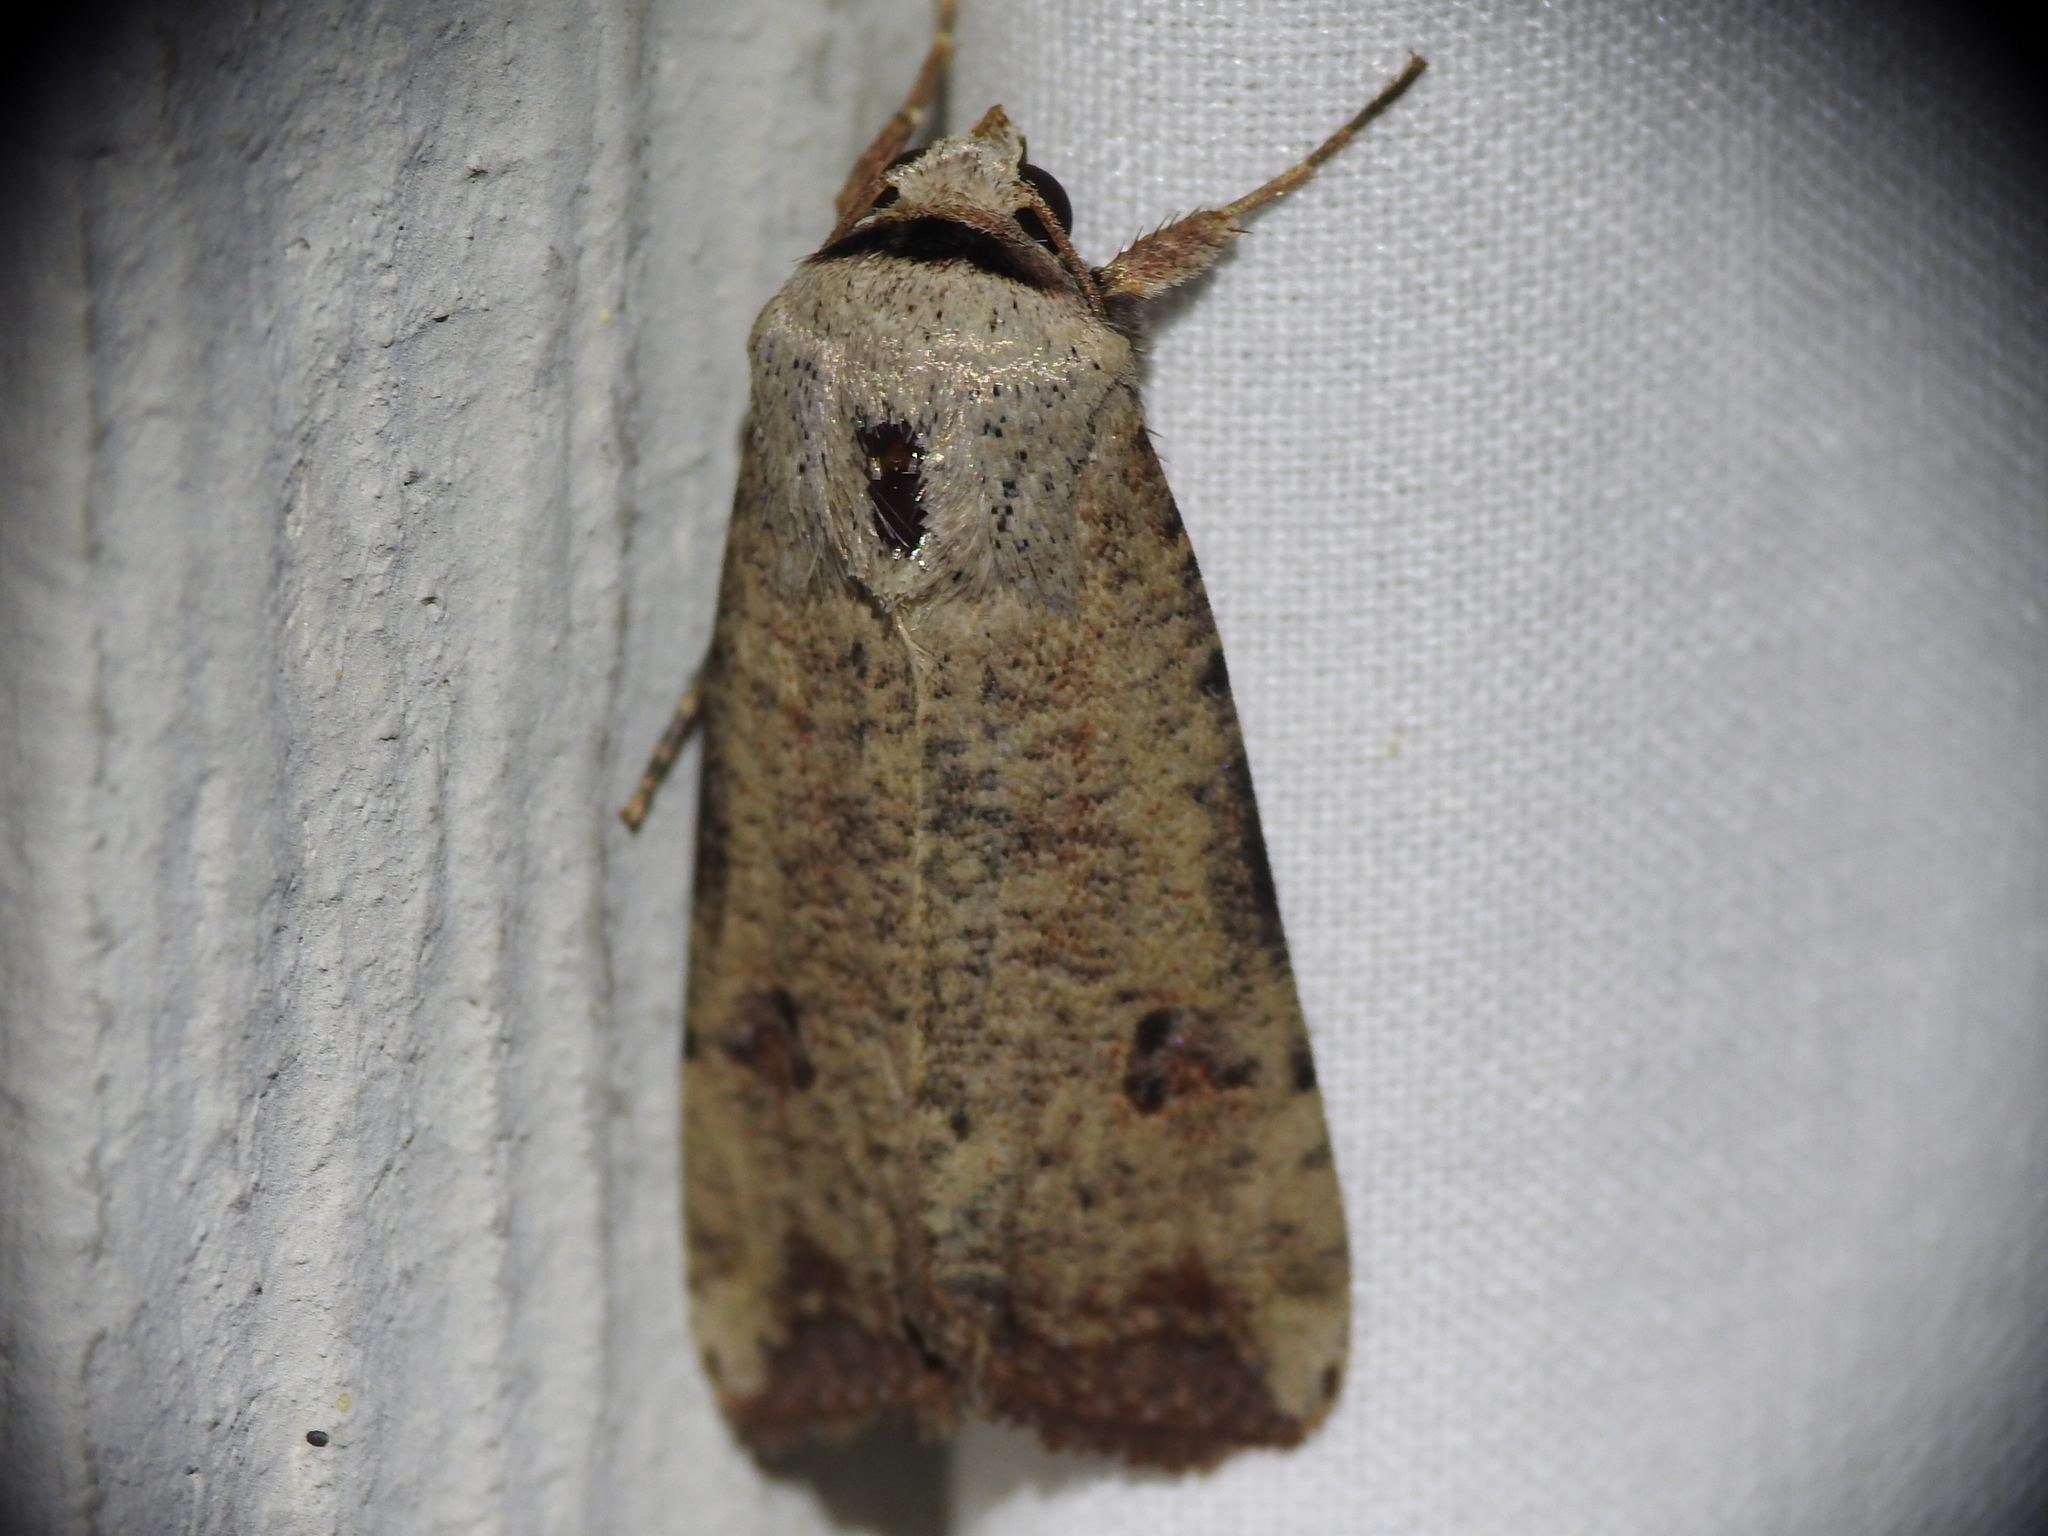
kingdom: Animalia
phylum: Arthropoda
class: Insecta
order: Lepidoptera
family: Noctuidae
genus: Anicla
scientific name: Anicla infecta
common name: Green cutworm
